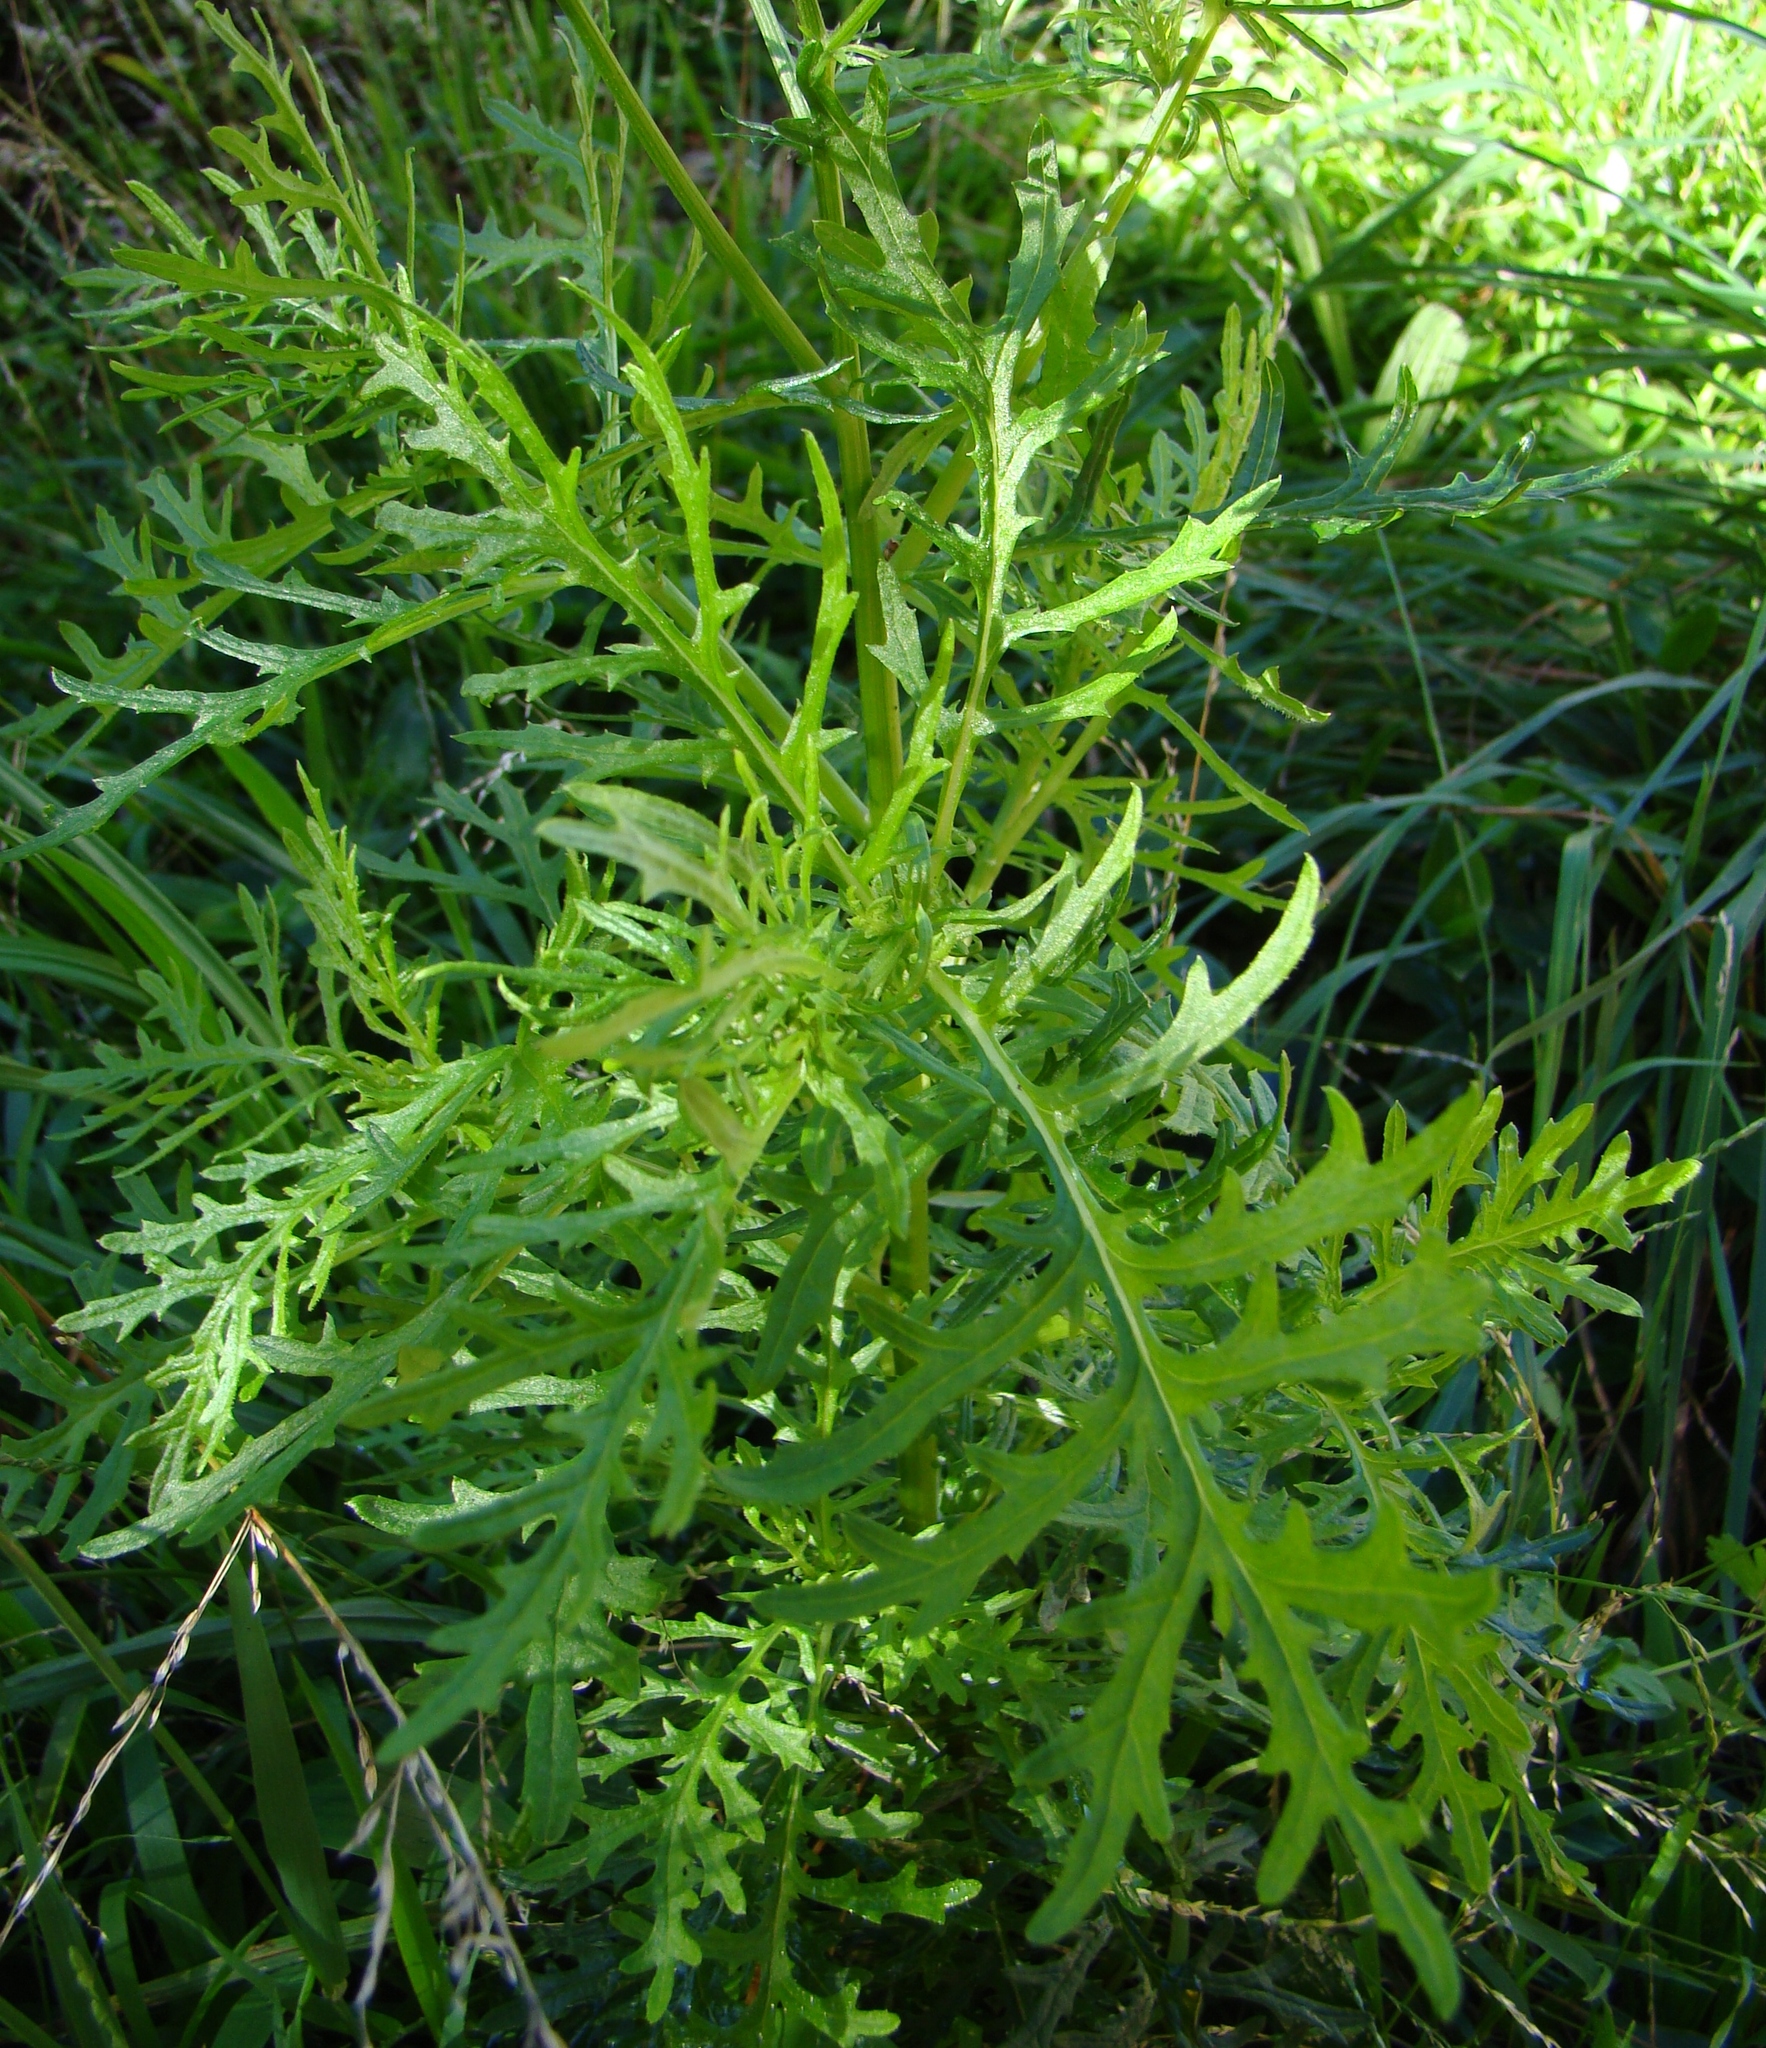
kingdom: Plantae
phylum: Tracheophyta
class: Magnoliopsida
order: Asterales
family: Asteraceae
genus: Senecio
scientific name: Senecio bipinnatisectus
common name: Australian fireweed
